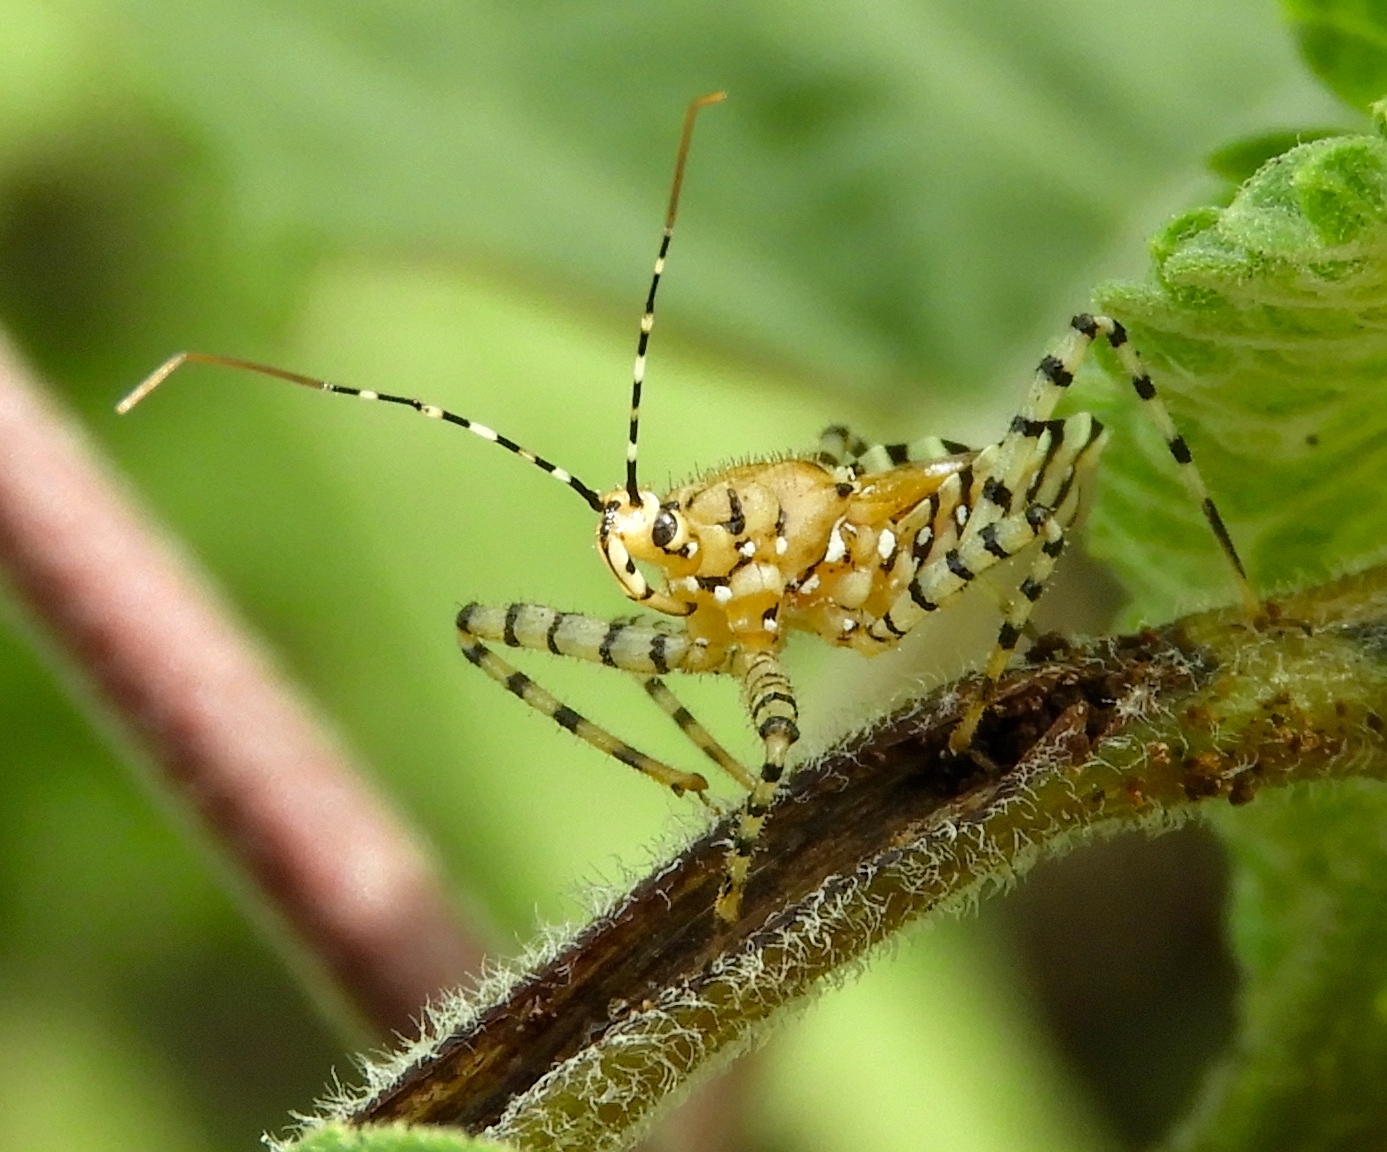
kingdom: Animalia
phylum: Arthropoda
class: Insecta
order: Hemiptera
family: Reduviidae
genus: Pselliopus
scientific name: Pselliopus
